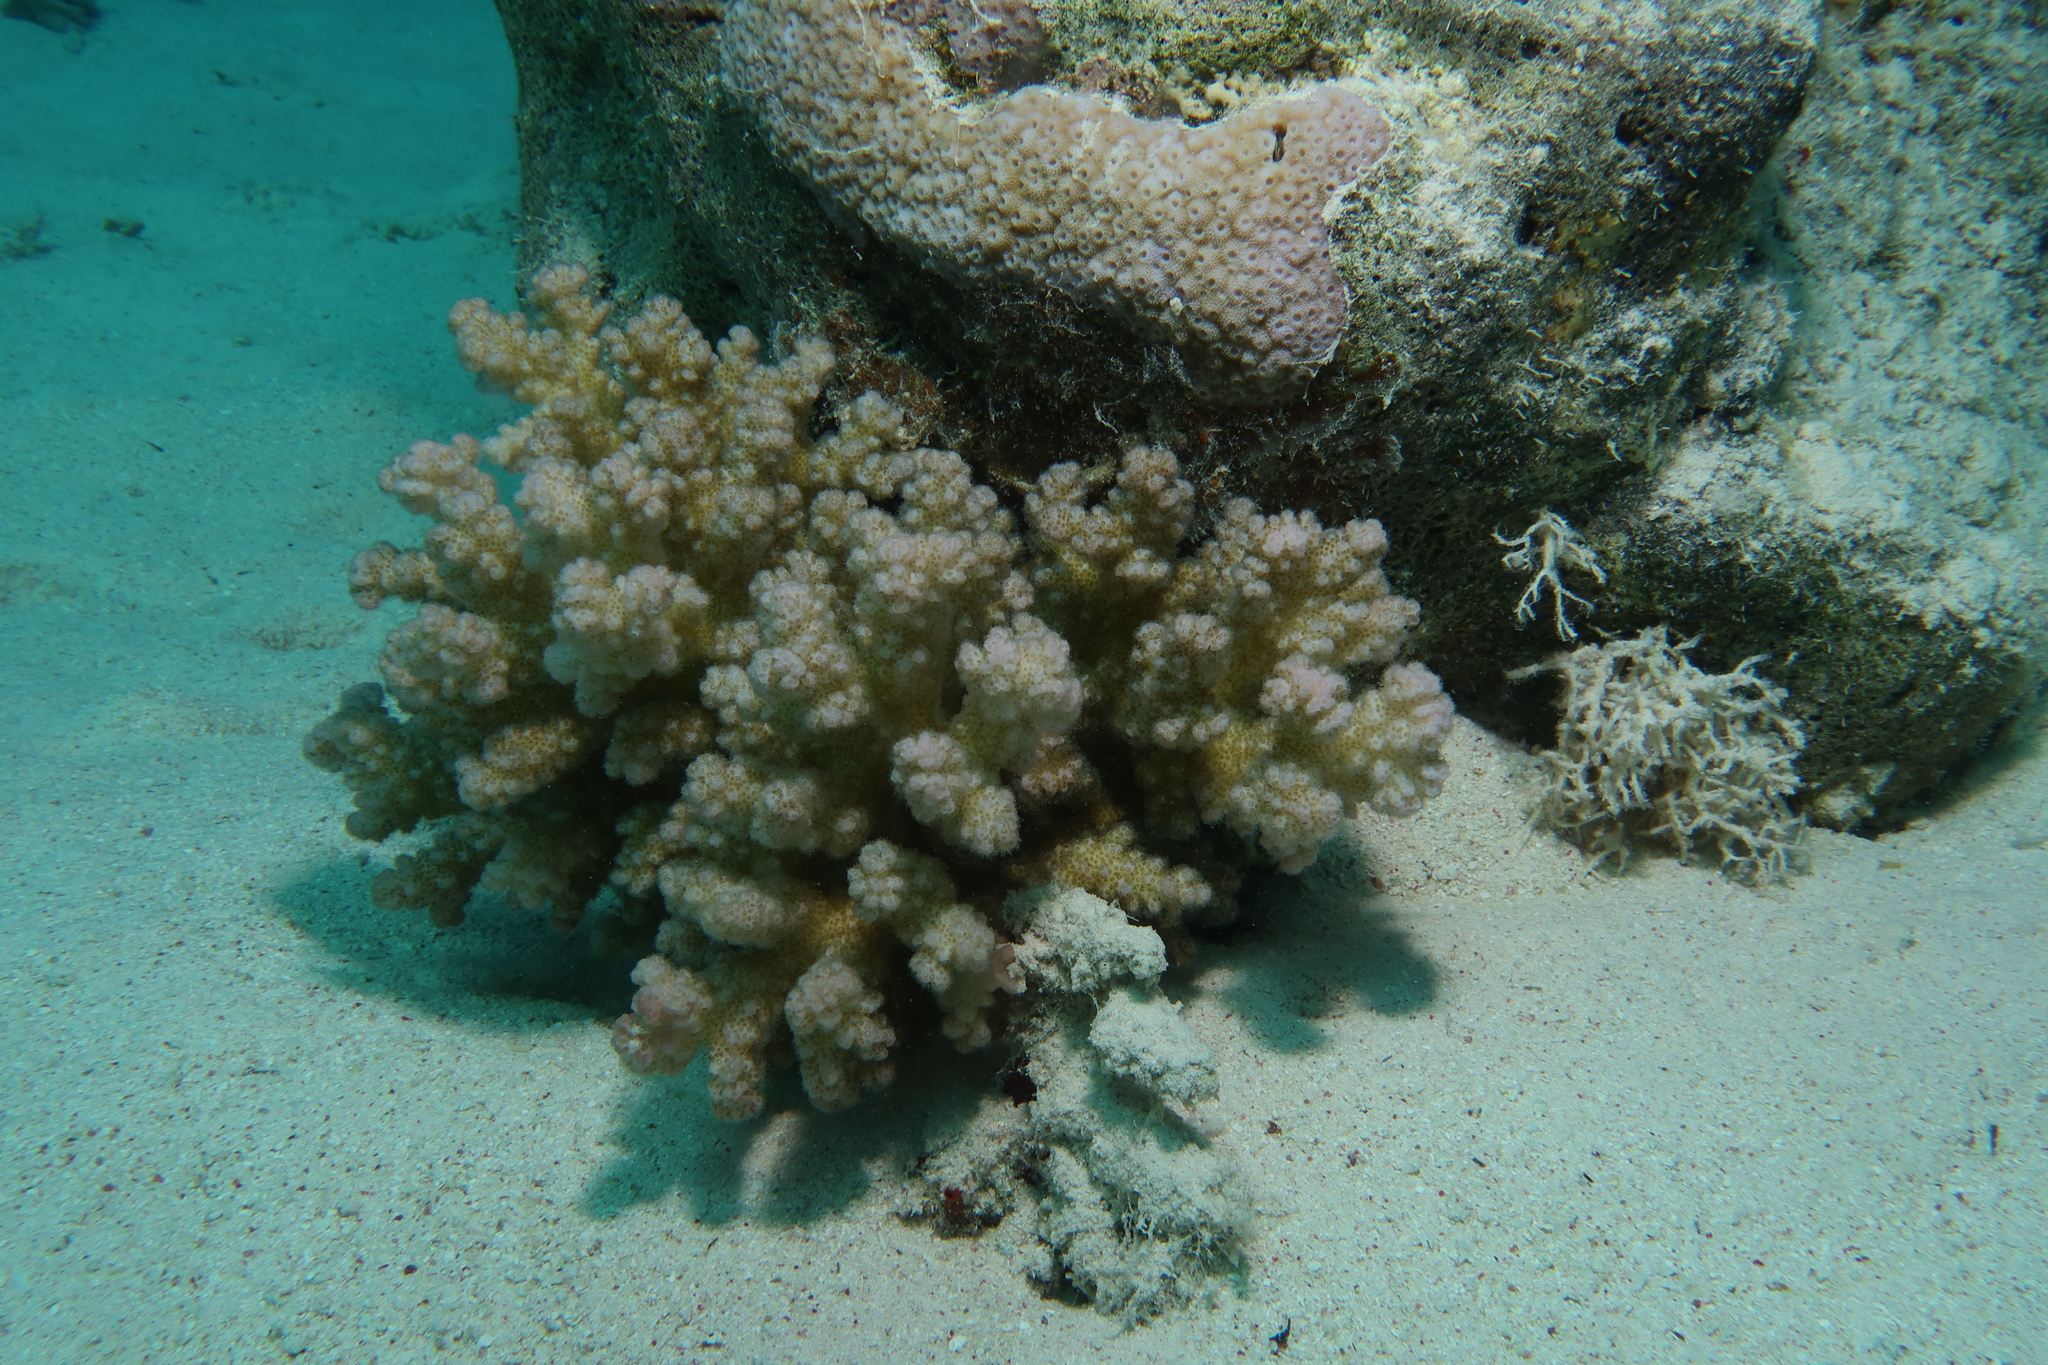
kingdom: Animalia
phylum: Cnidaria
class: Anthozoa
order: Scleractinia
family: Pocilloporidae
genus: Pocillopora
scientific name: Pocillopora verrucosa
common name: Cauliflower coral
